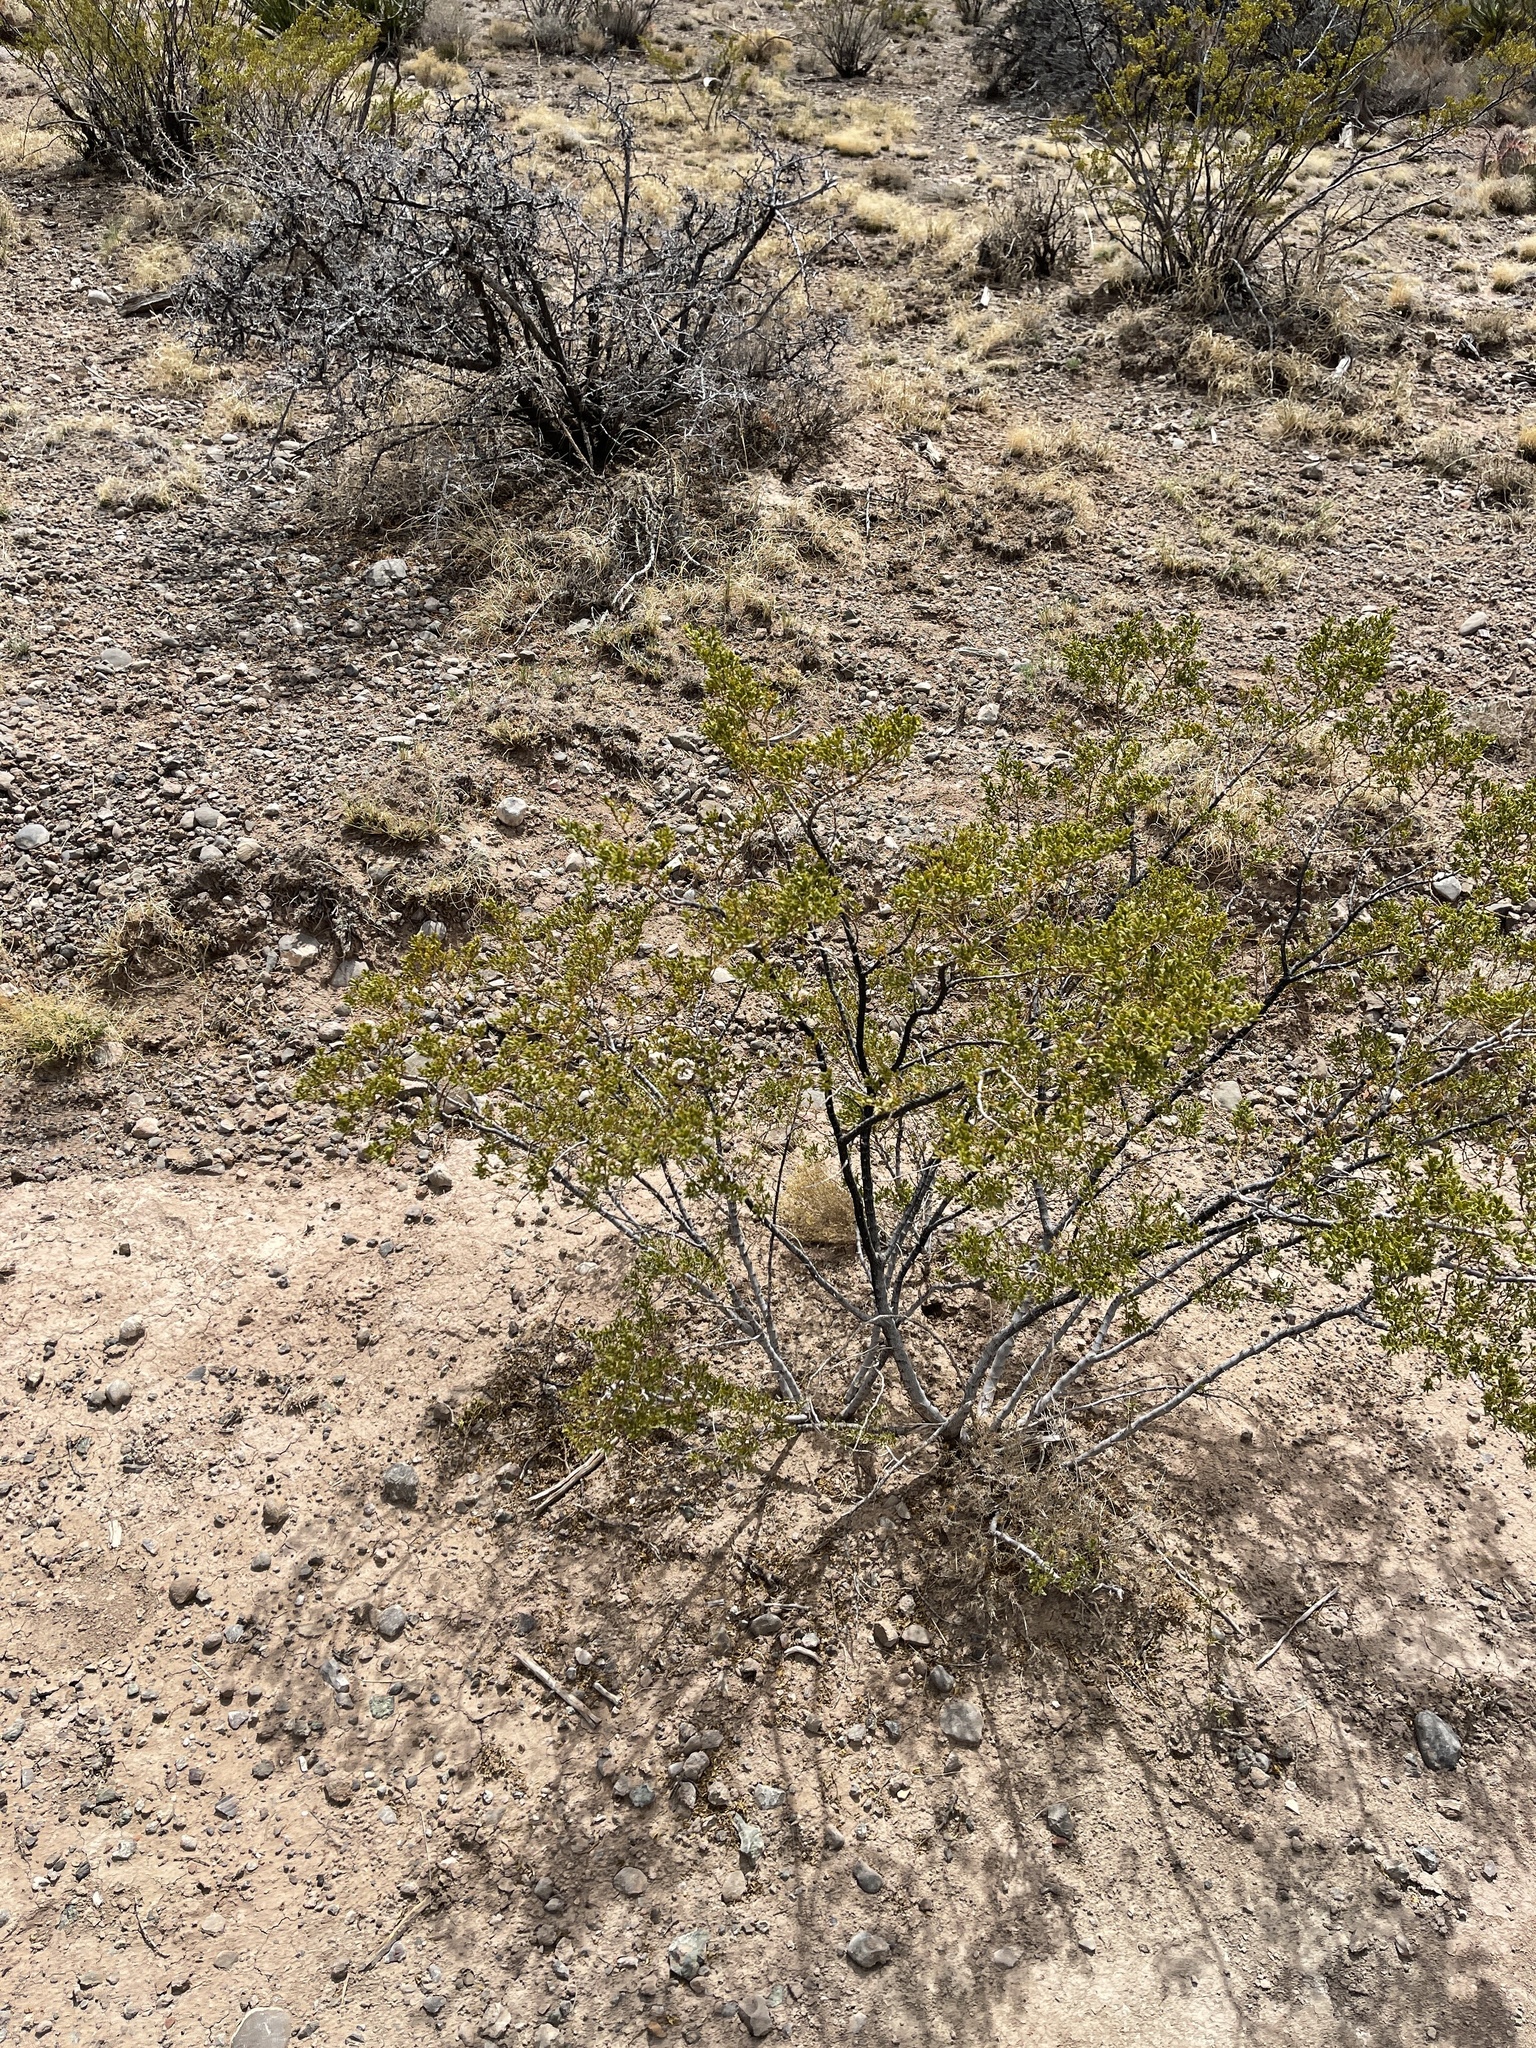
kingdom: Plantae
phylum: Tracheophyta
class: Magnoliopsida
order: Zygophyllales
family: Zygophyllaceae
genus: Larrea
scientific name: Larrea tridentata
